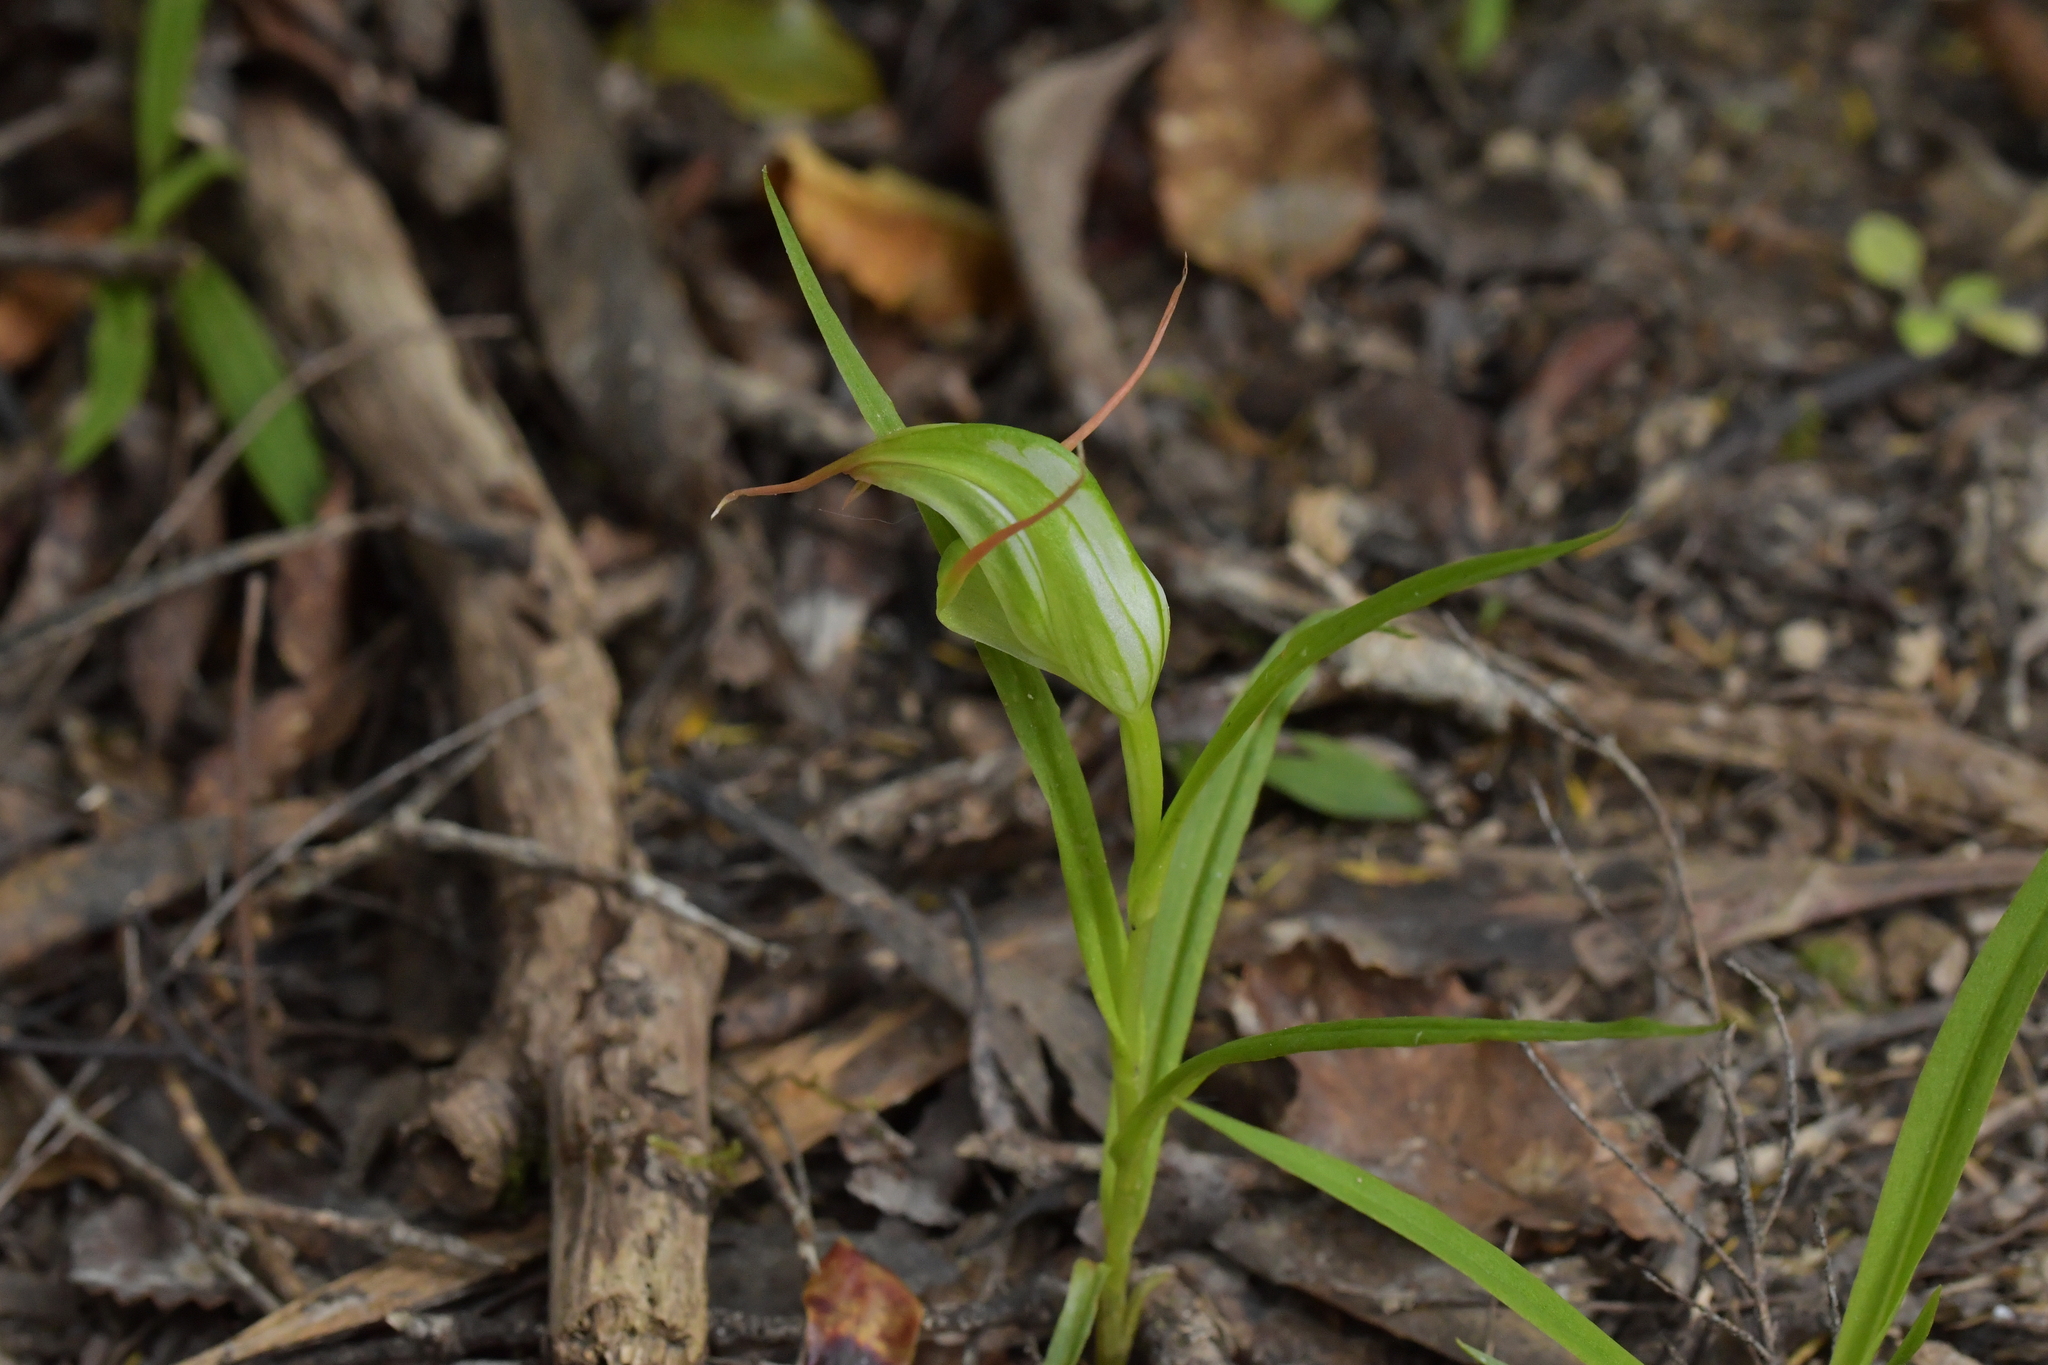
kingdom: Plantae
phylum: Tracheophyta
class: Liliopsida
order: Asparagales
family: Orchidaceae
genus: Pterostylis
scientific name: Pterostylis banksii
